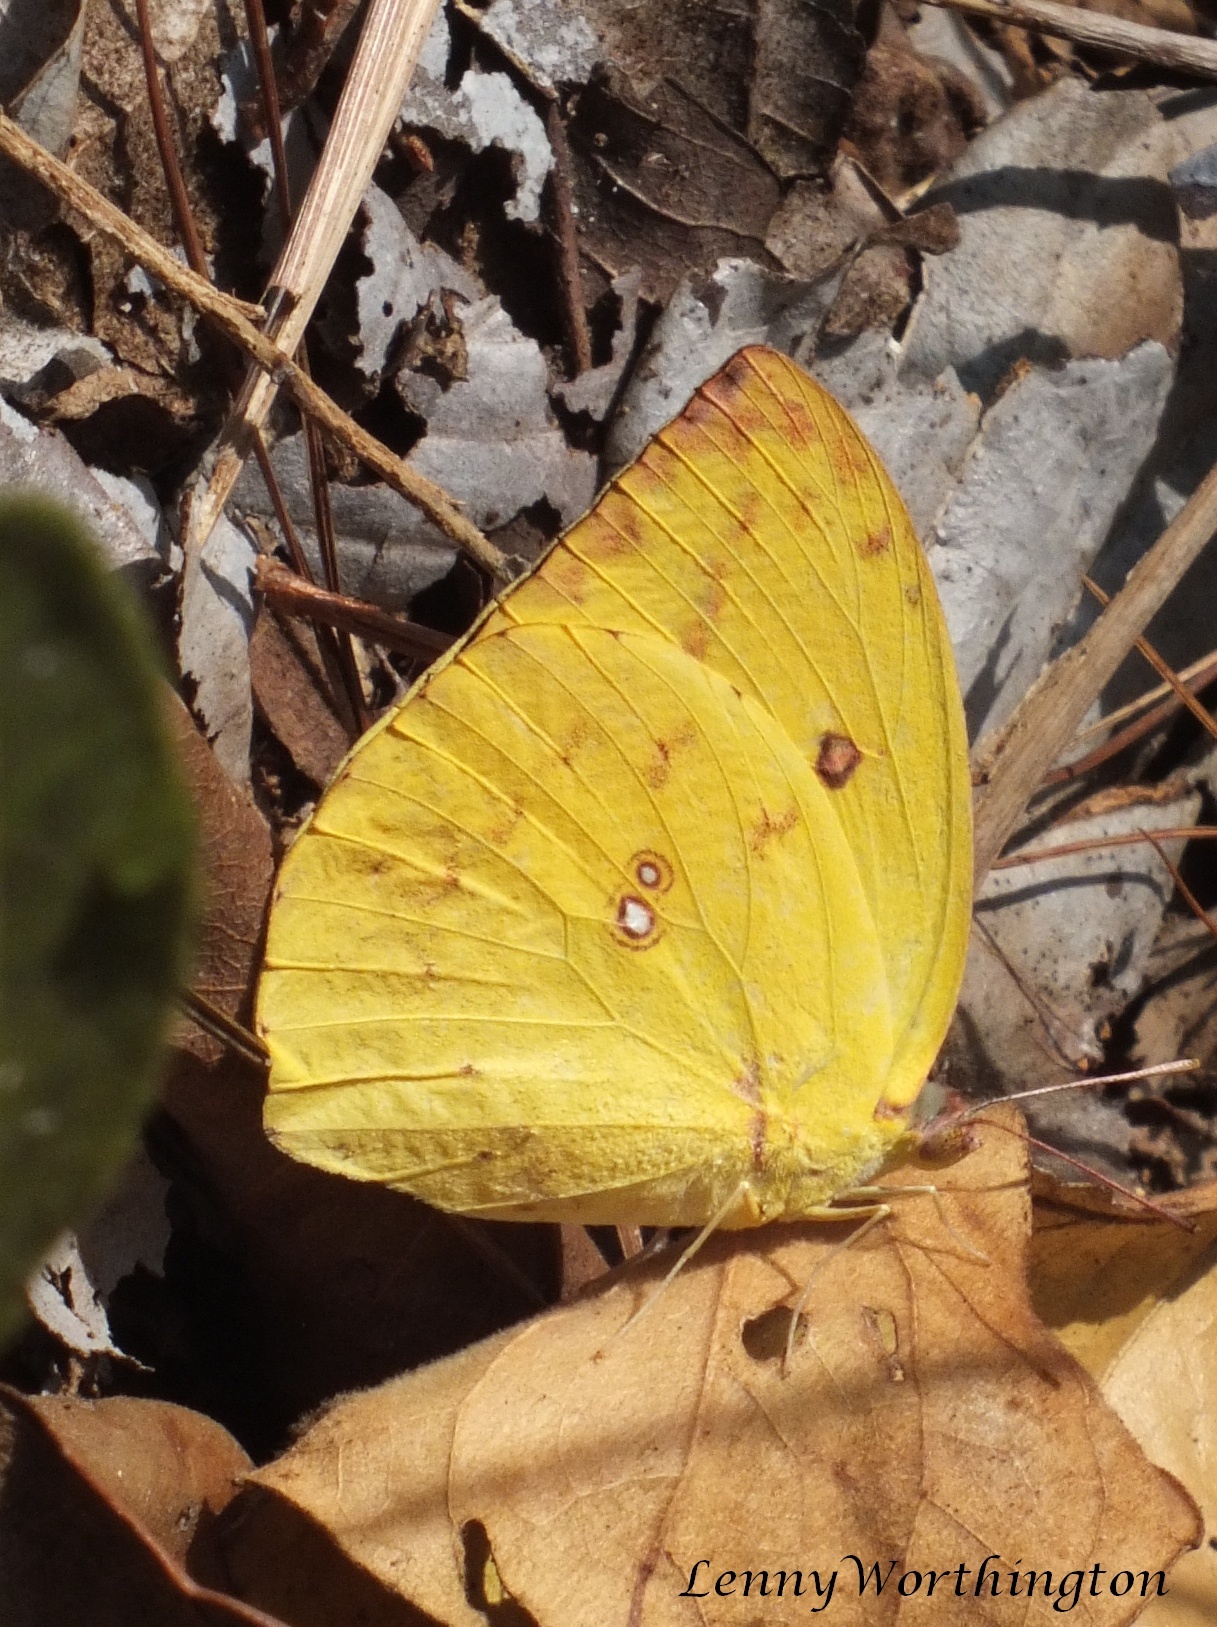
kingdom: Animalia
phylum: Arthropoda
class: Insecta
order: Lepidoptera
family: Pieridae
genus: Catopsilia
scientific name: Catopsilia pomona
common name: Common emigrant
